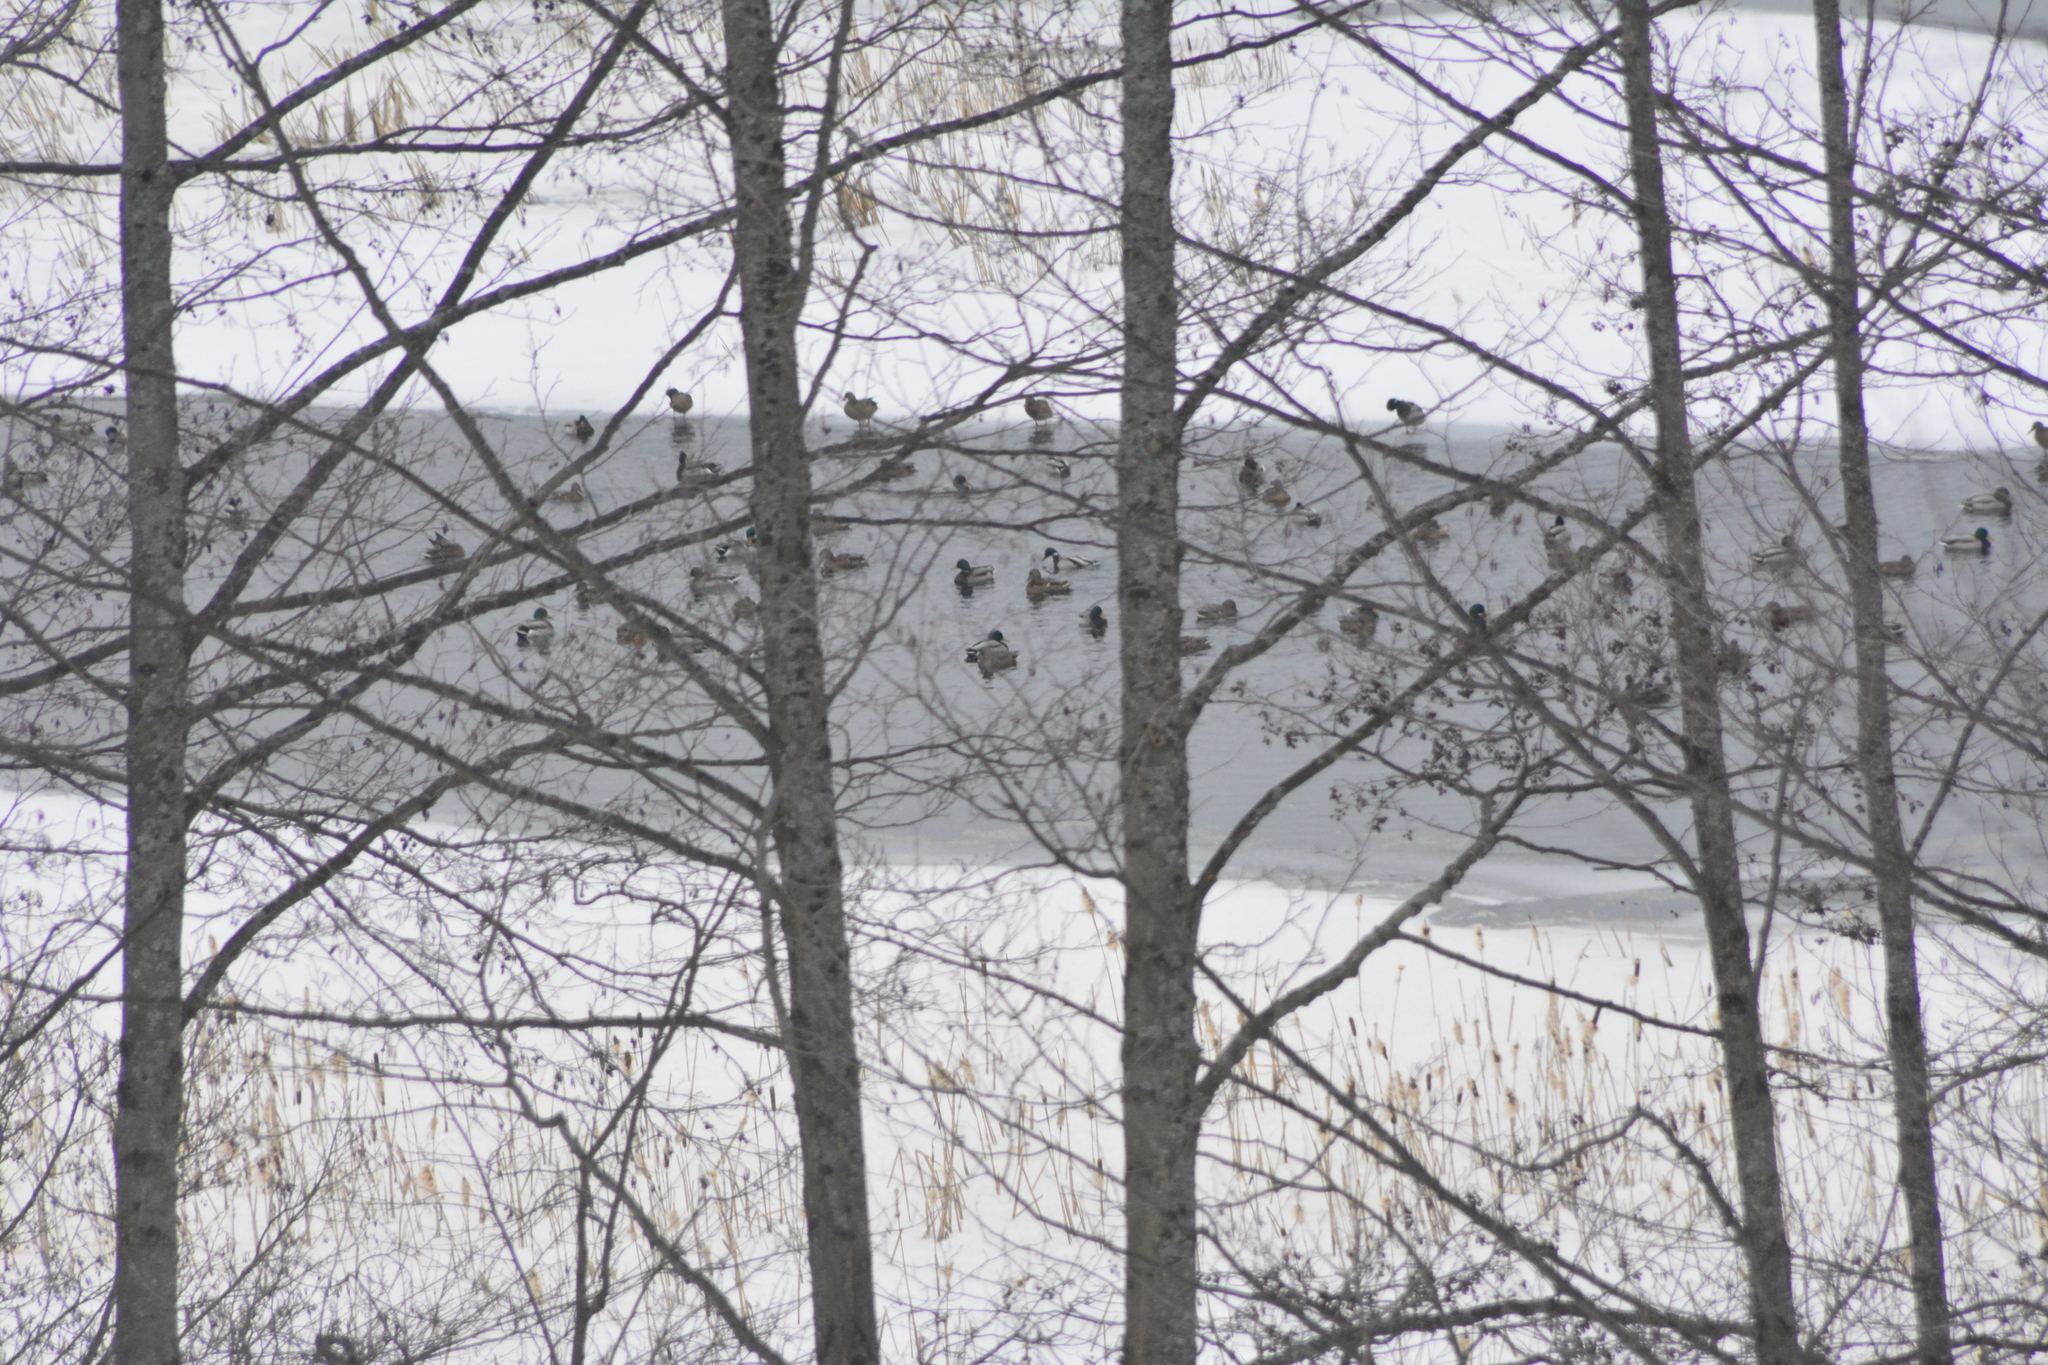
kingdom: Animalia
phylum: Chordata
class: Aves
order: Anseriformes
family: Anatidae
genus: Anas
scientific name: Anas platyrhynchos
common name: Mallard
